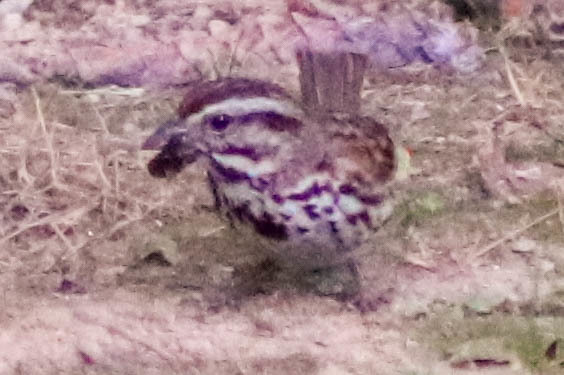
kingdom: Animalia
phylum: Chordata
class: Aves
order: Passeriformes
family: Passerellidae
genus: Melospiza
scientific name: Melospiza melodia
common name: Song sparrow
